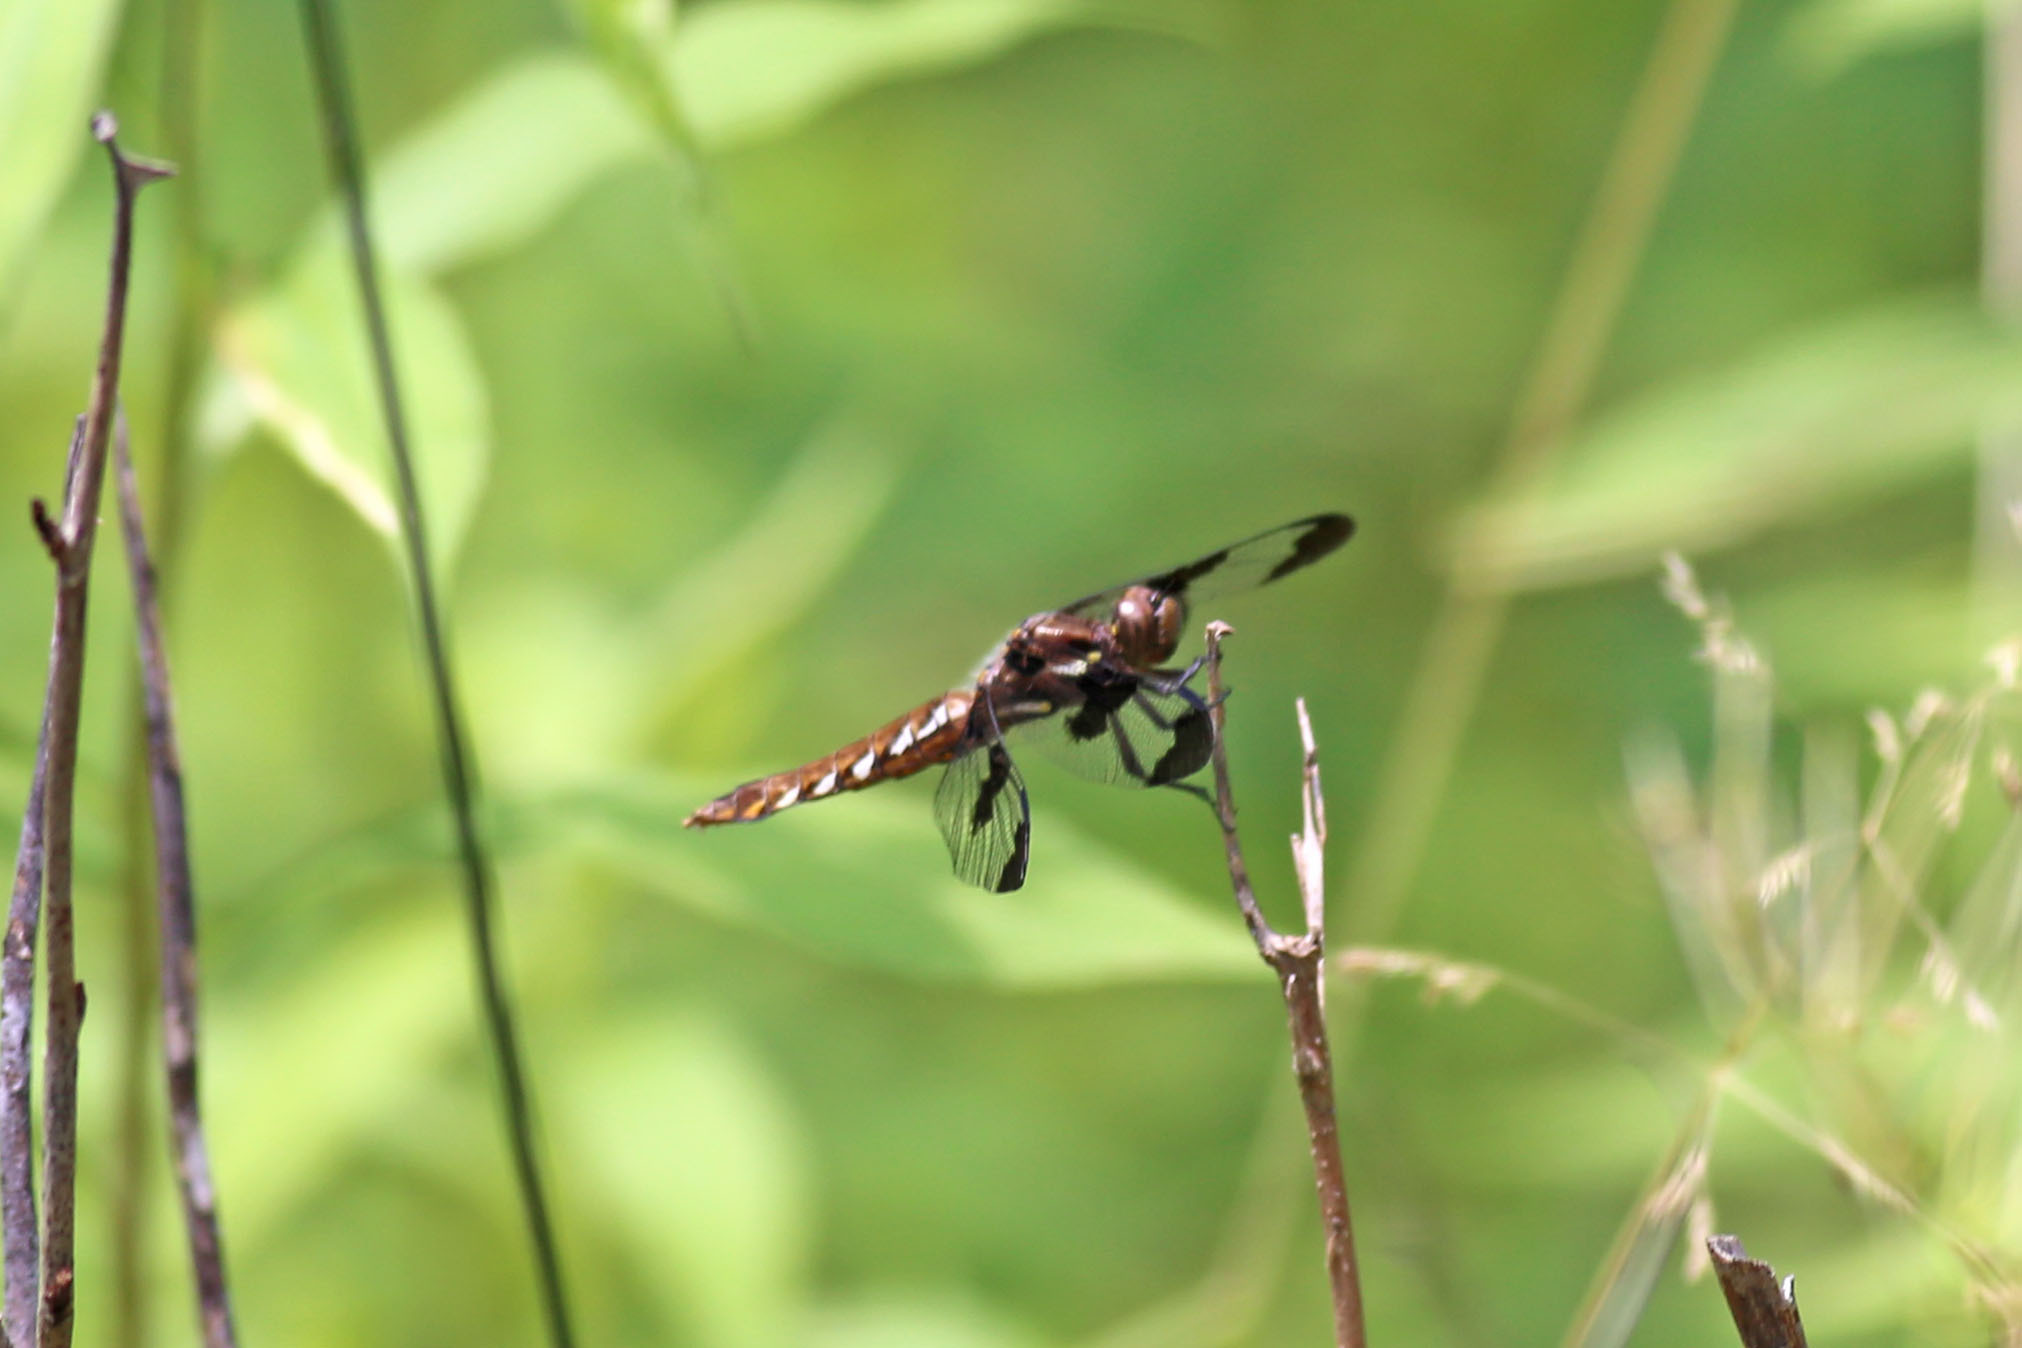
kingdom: Animalia
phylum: Arthropoda
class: Insecta
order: Odonata
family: Libellulidae
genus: Plathemis
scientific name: Plathemis lydia
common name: Common whitetail
